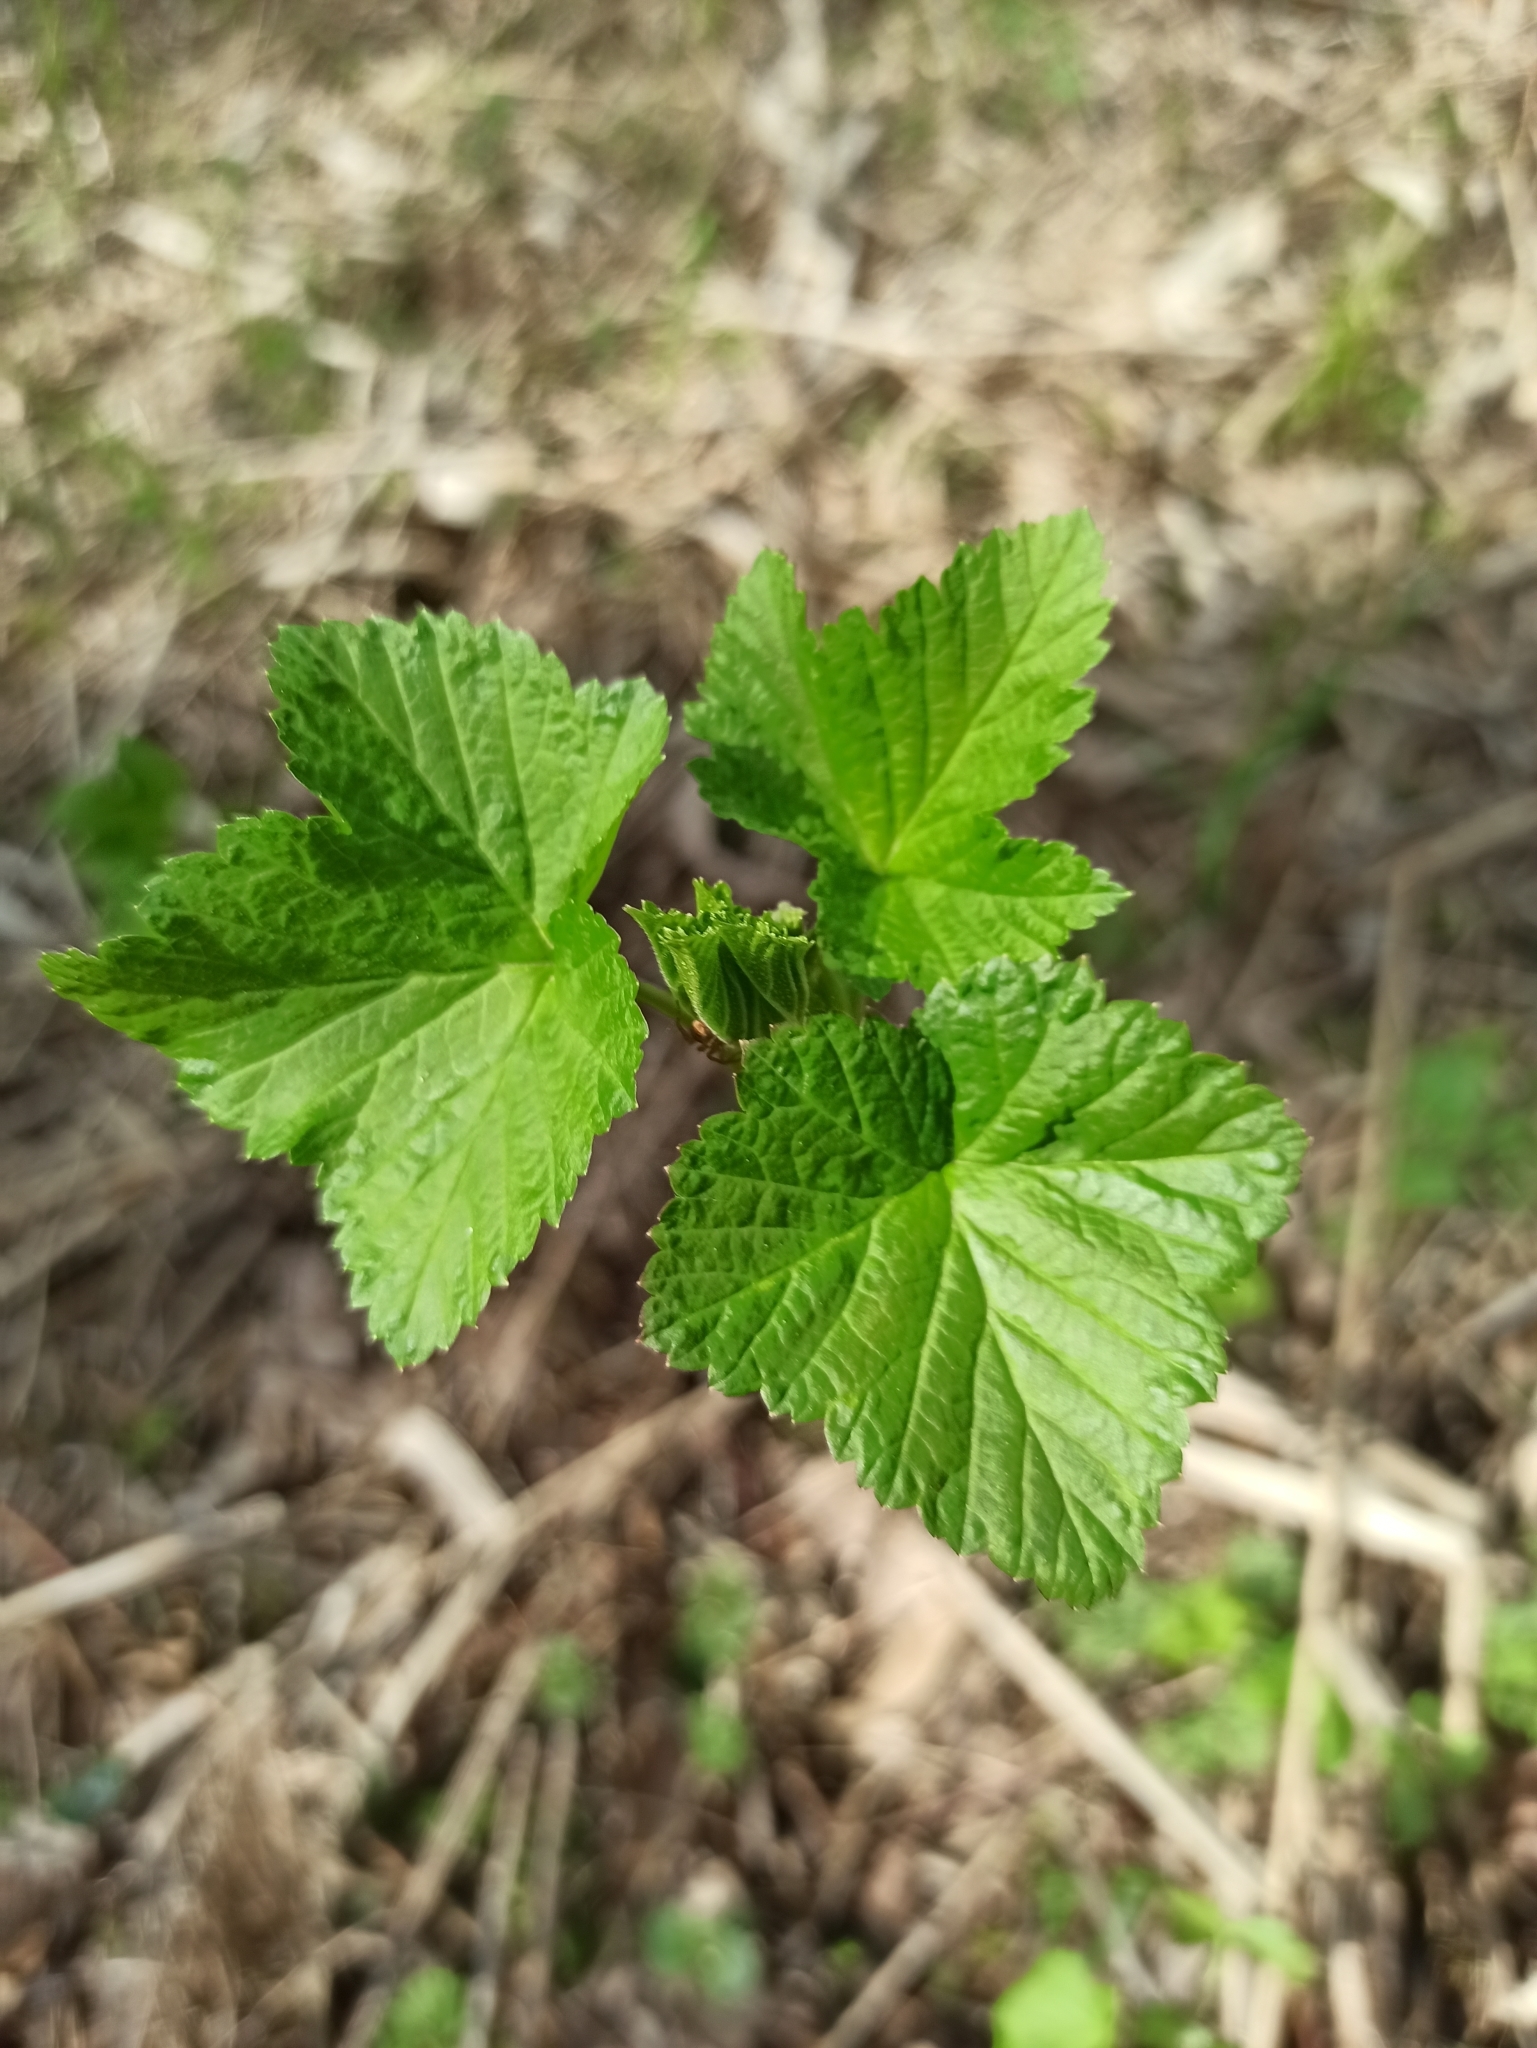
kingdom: Plantae
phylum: Tracheophyta
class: Magnoliopsida
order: Saxifragales
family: Grossulariaceae
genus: Ribes
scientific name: Ribes nigrum
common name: Black currant
